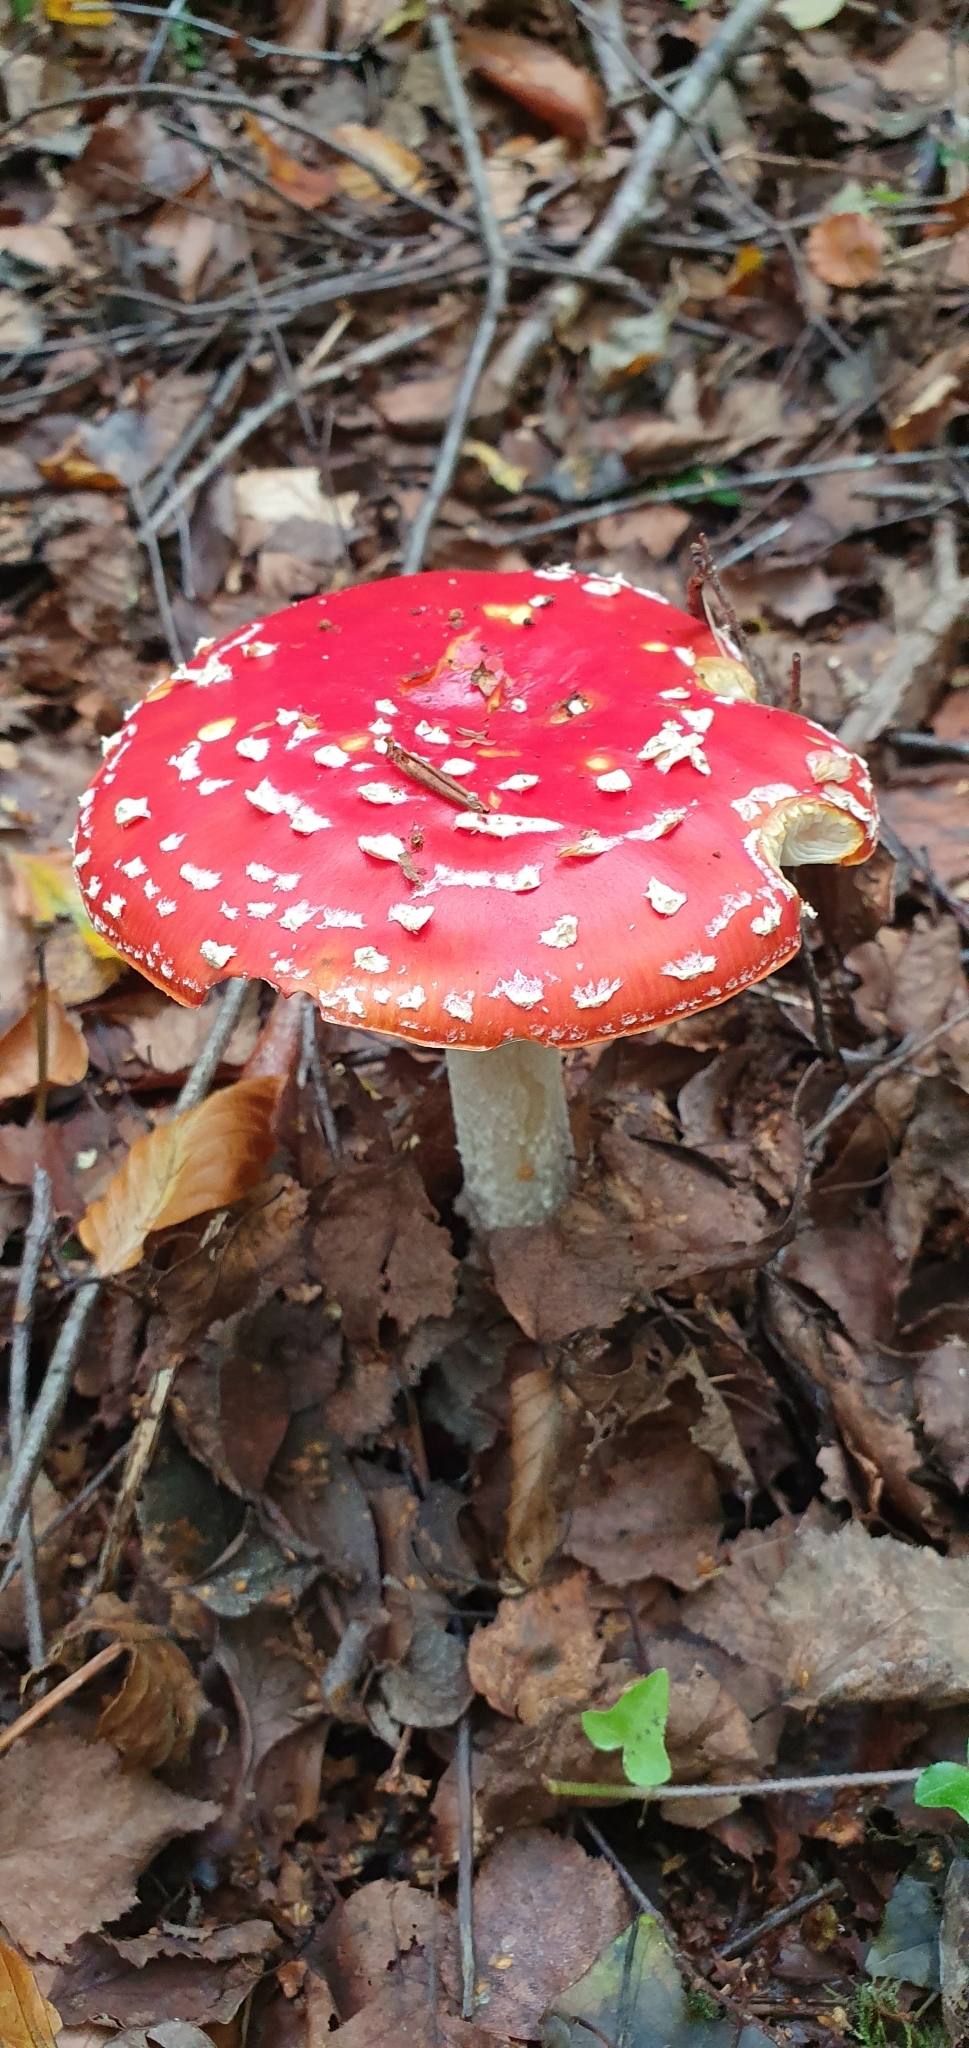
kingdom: Fungi
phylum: Basidiomycota
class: Agaricomycetes
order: Agaricales
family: Amanitaceae
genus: Amanita
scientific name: Amanita muscaria
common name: Fly agaric
